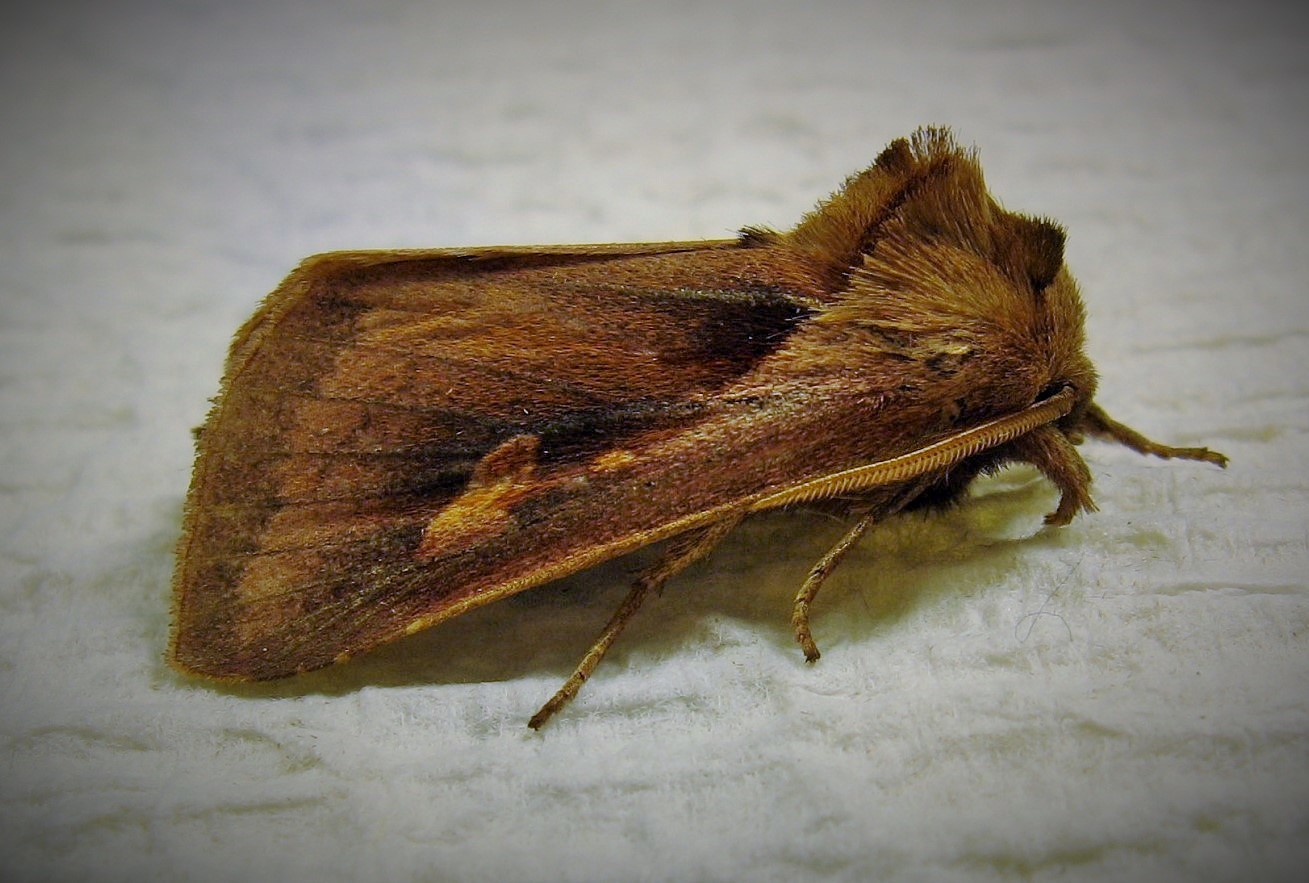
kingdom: Animalia
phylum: Arthropoda
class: Insecta
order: Lepidoptera
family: Noctuidae
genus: Bellura
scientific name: Bellura densa
